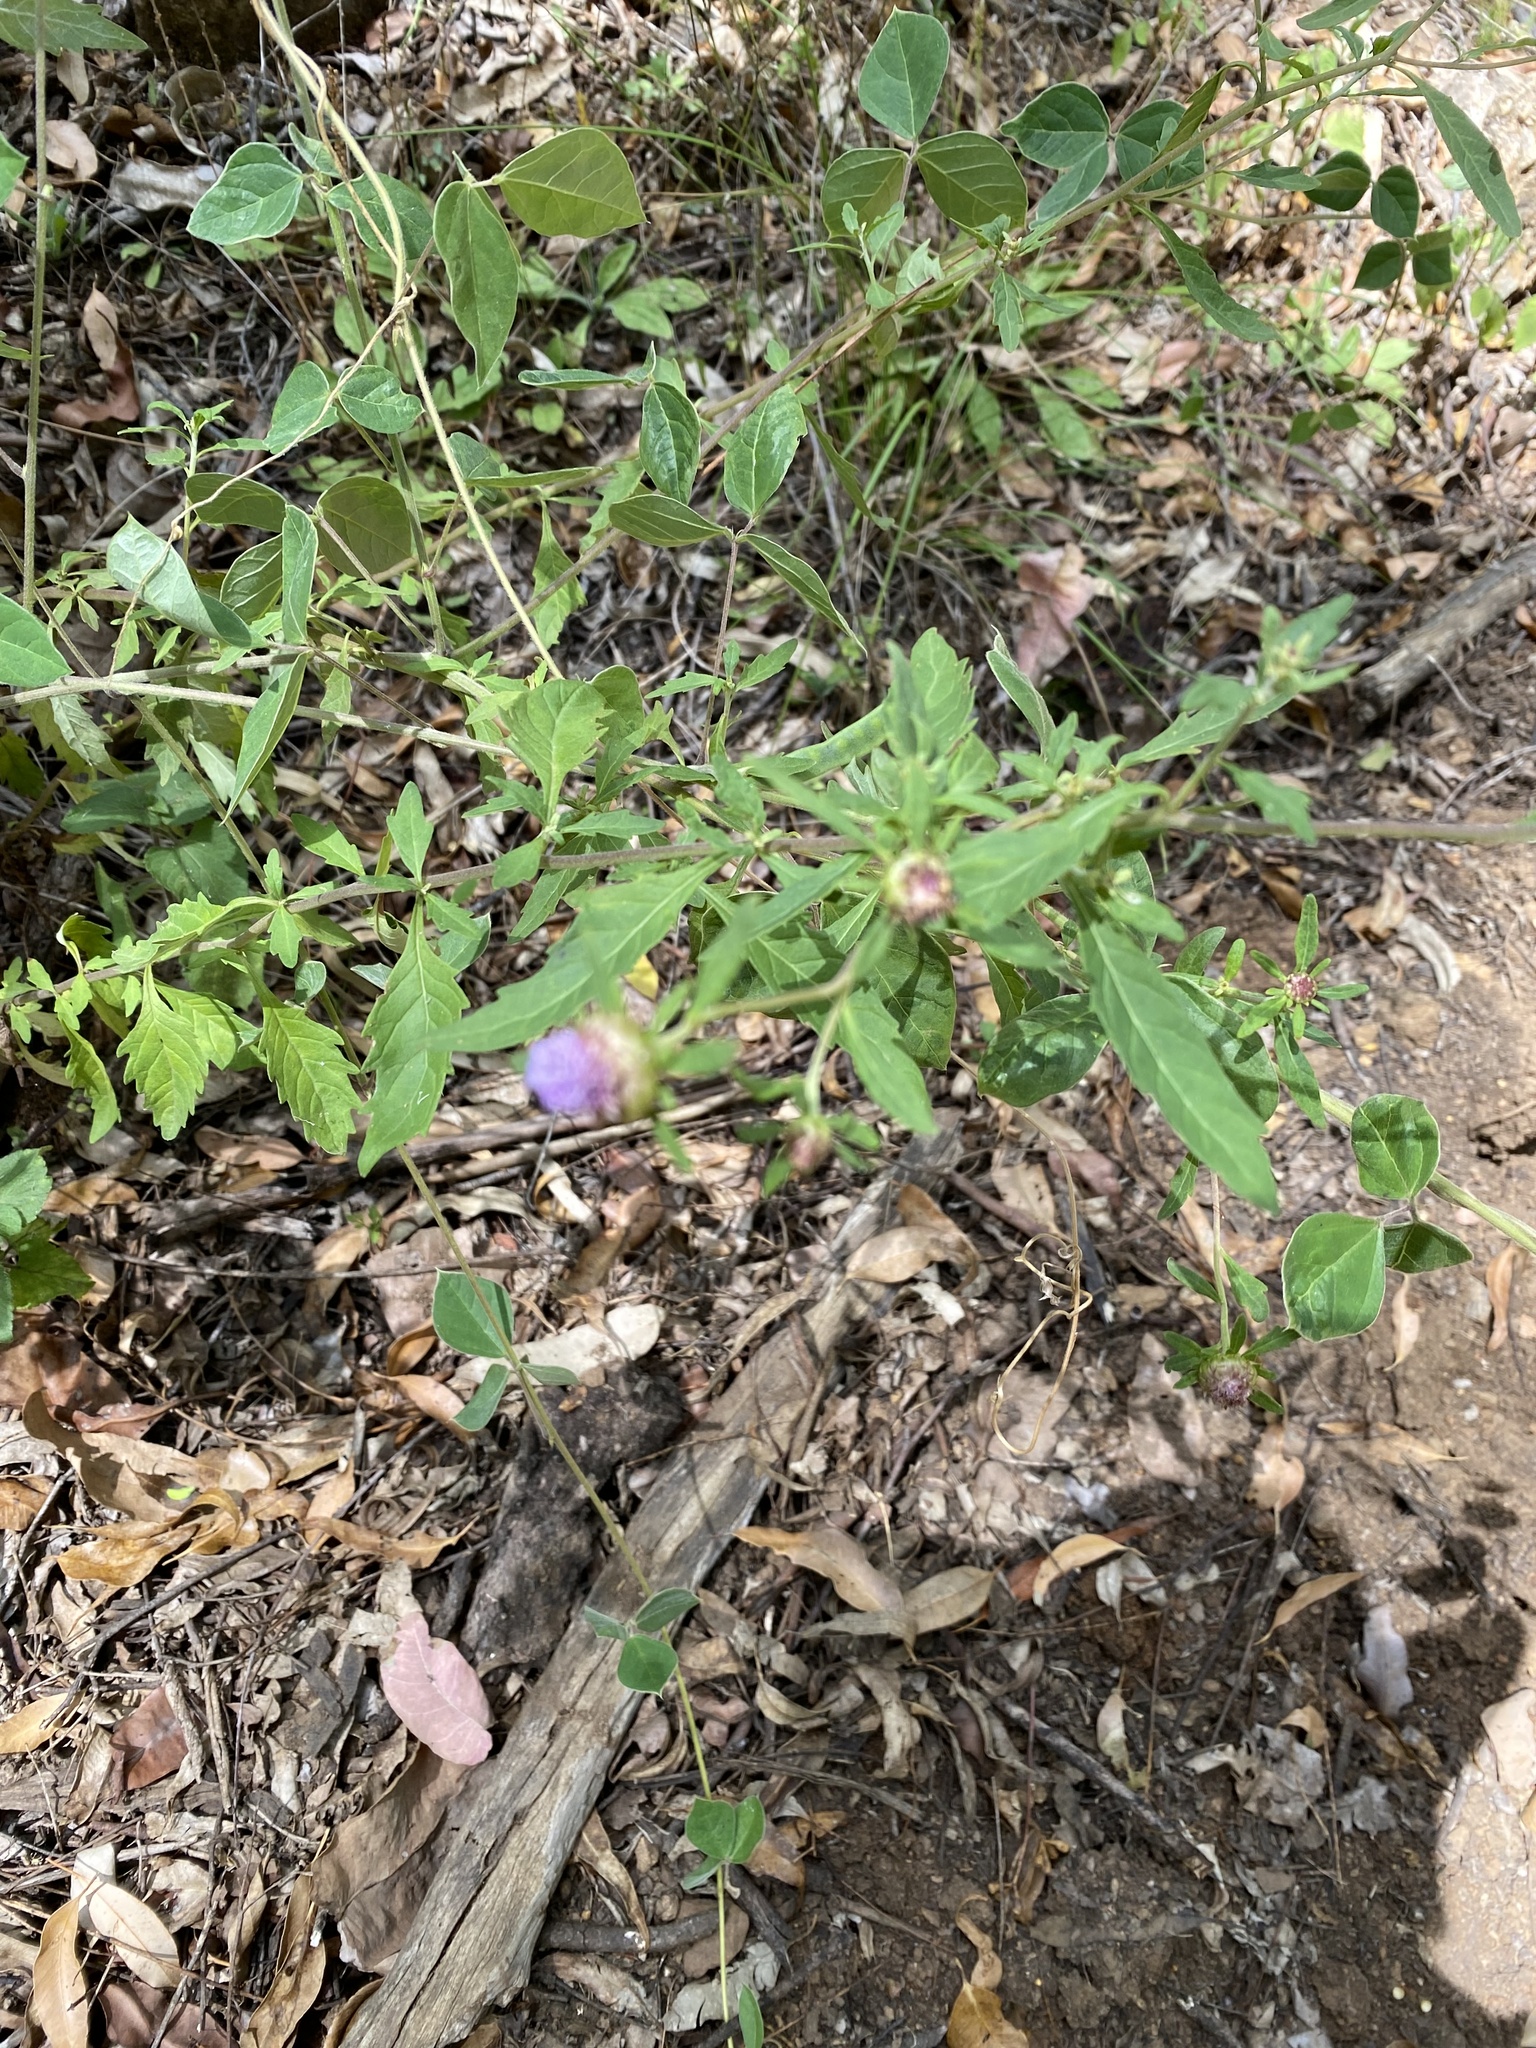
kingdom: Plantae
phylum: Tracheophyta
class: Magnoliopsida
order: Asterales
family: Asteraceae
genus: Centratherum
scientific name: Centratherum punctatum
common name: Larkdaisy
